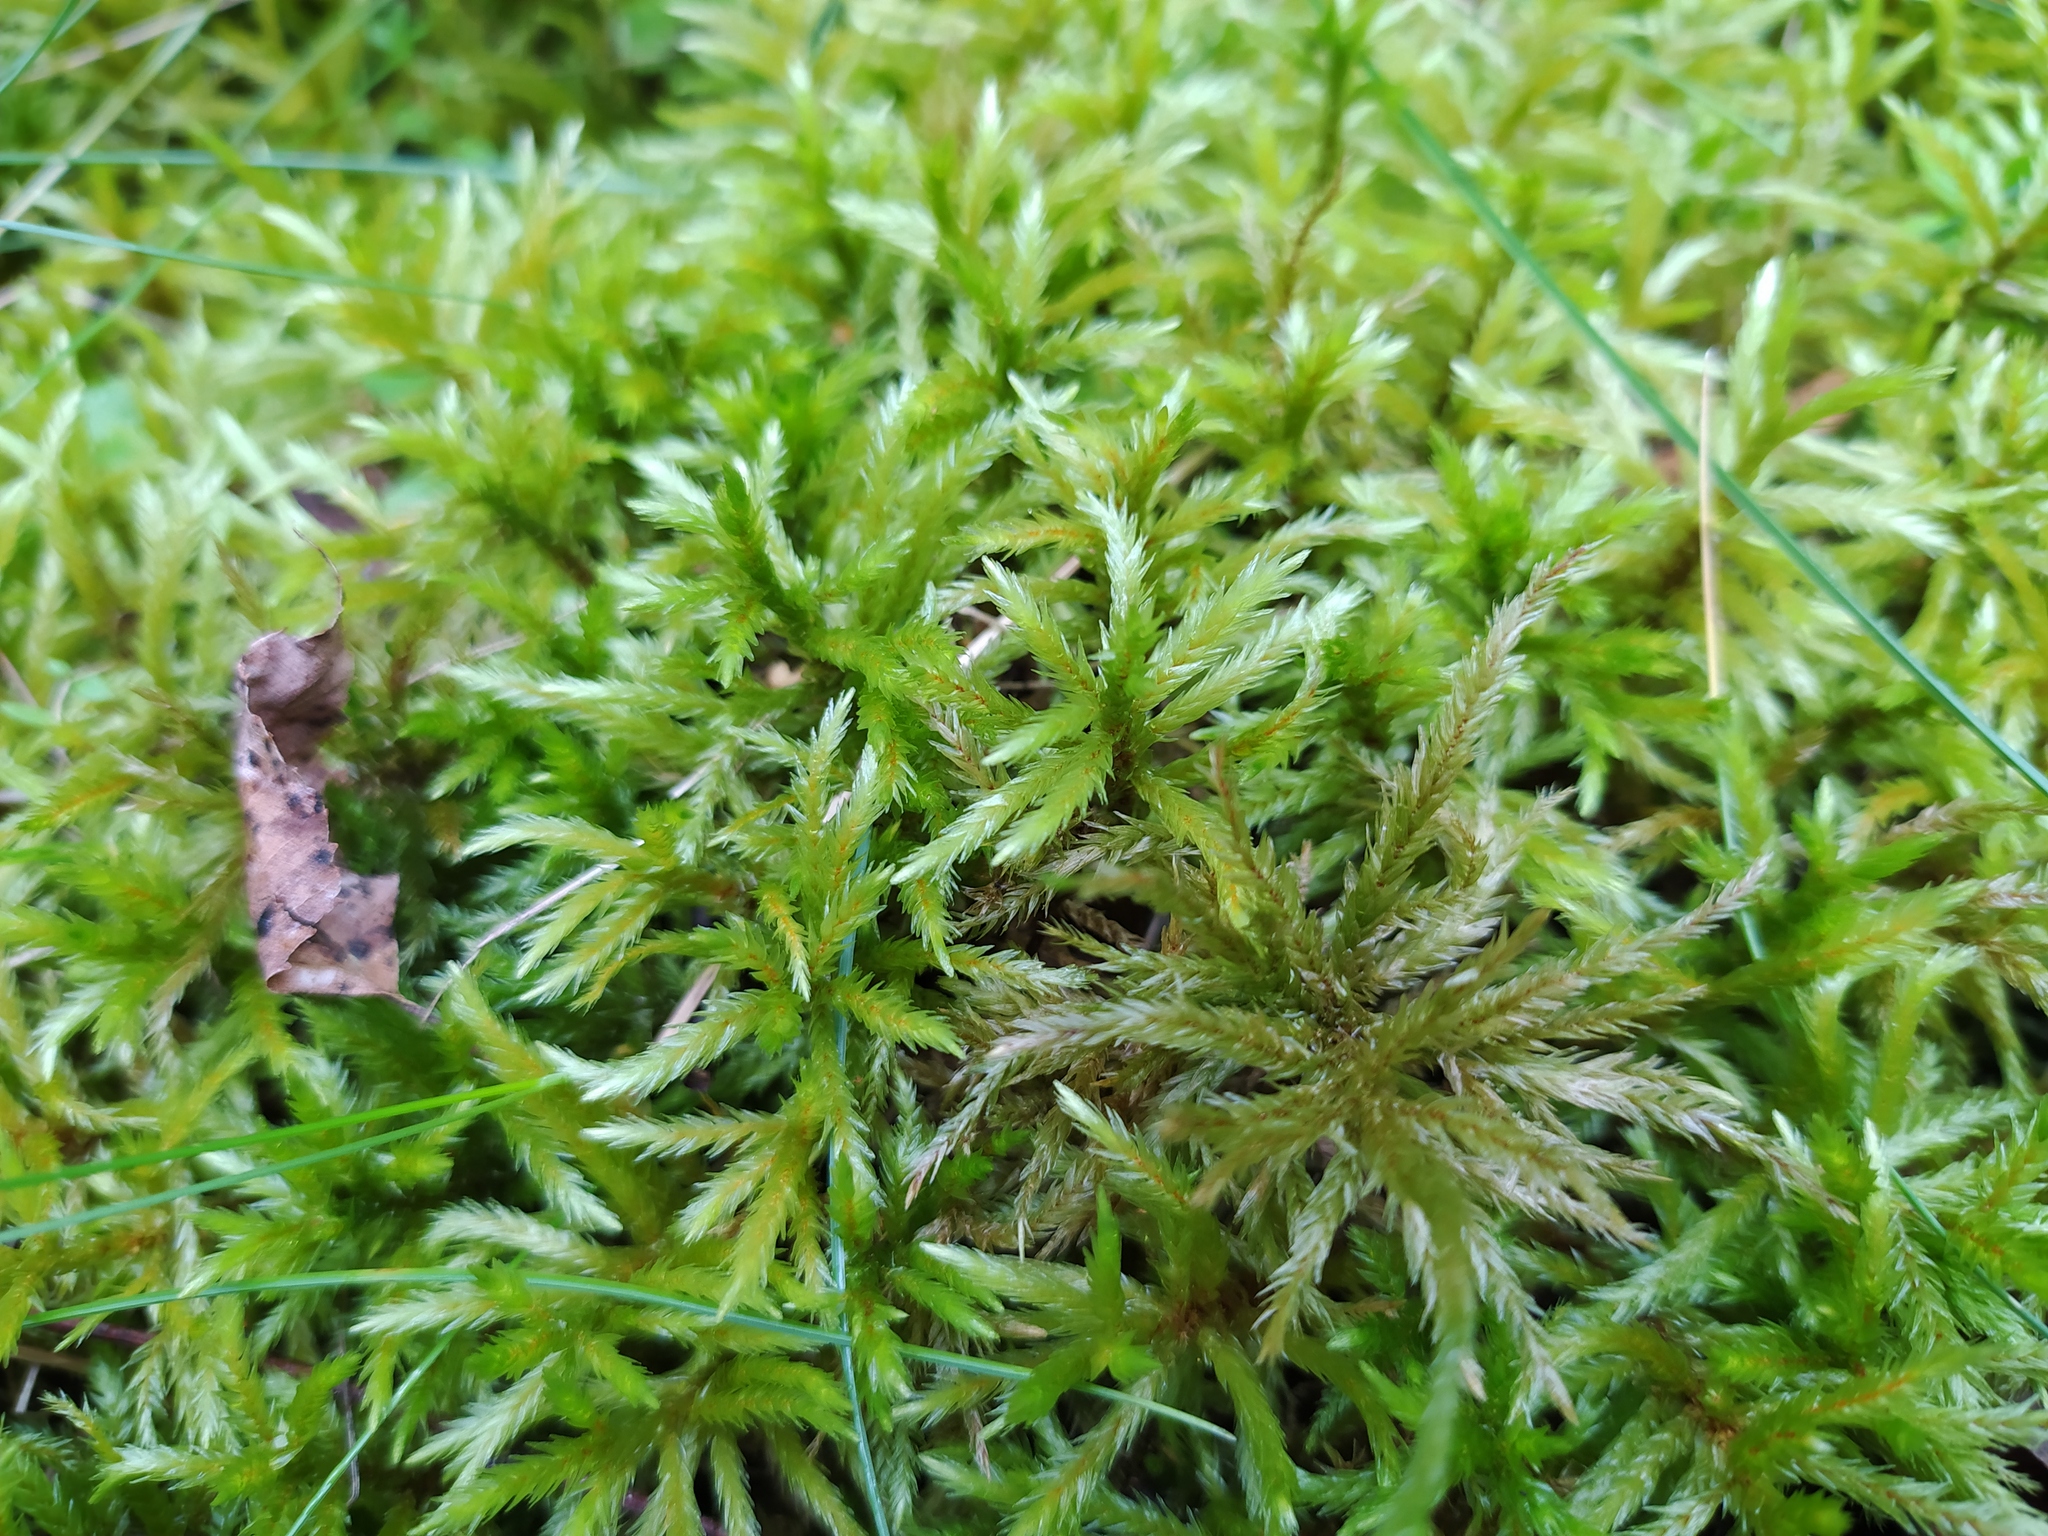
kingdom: Plantae
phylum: Bryophyta
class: Bryopsida
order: Hypnales
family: Climaciaceae
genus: Climacium
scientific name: Climacium dendroides
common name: Northern tree moss
